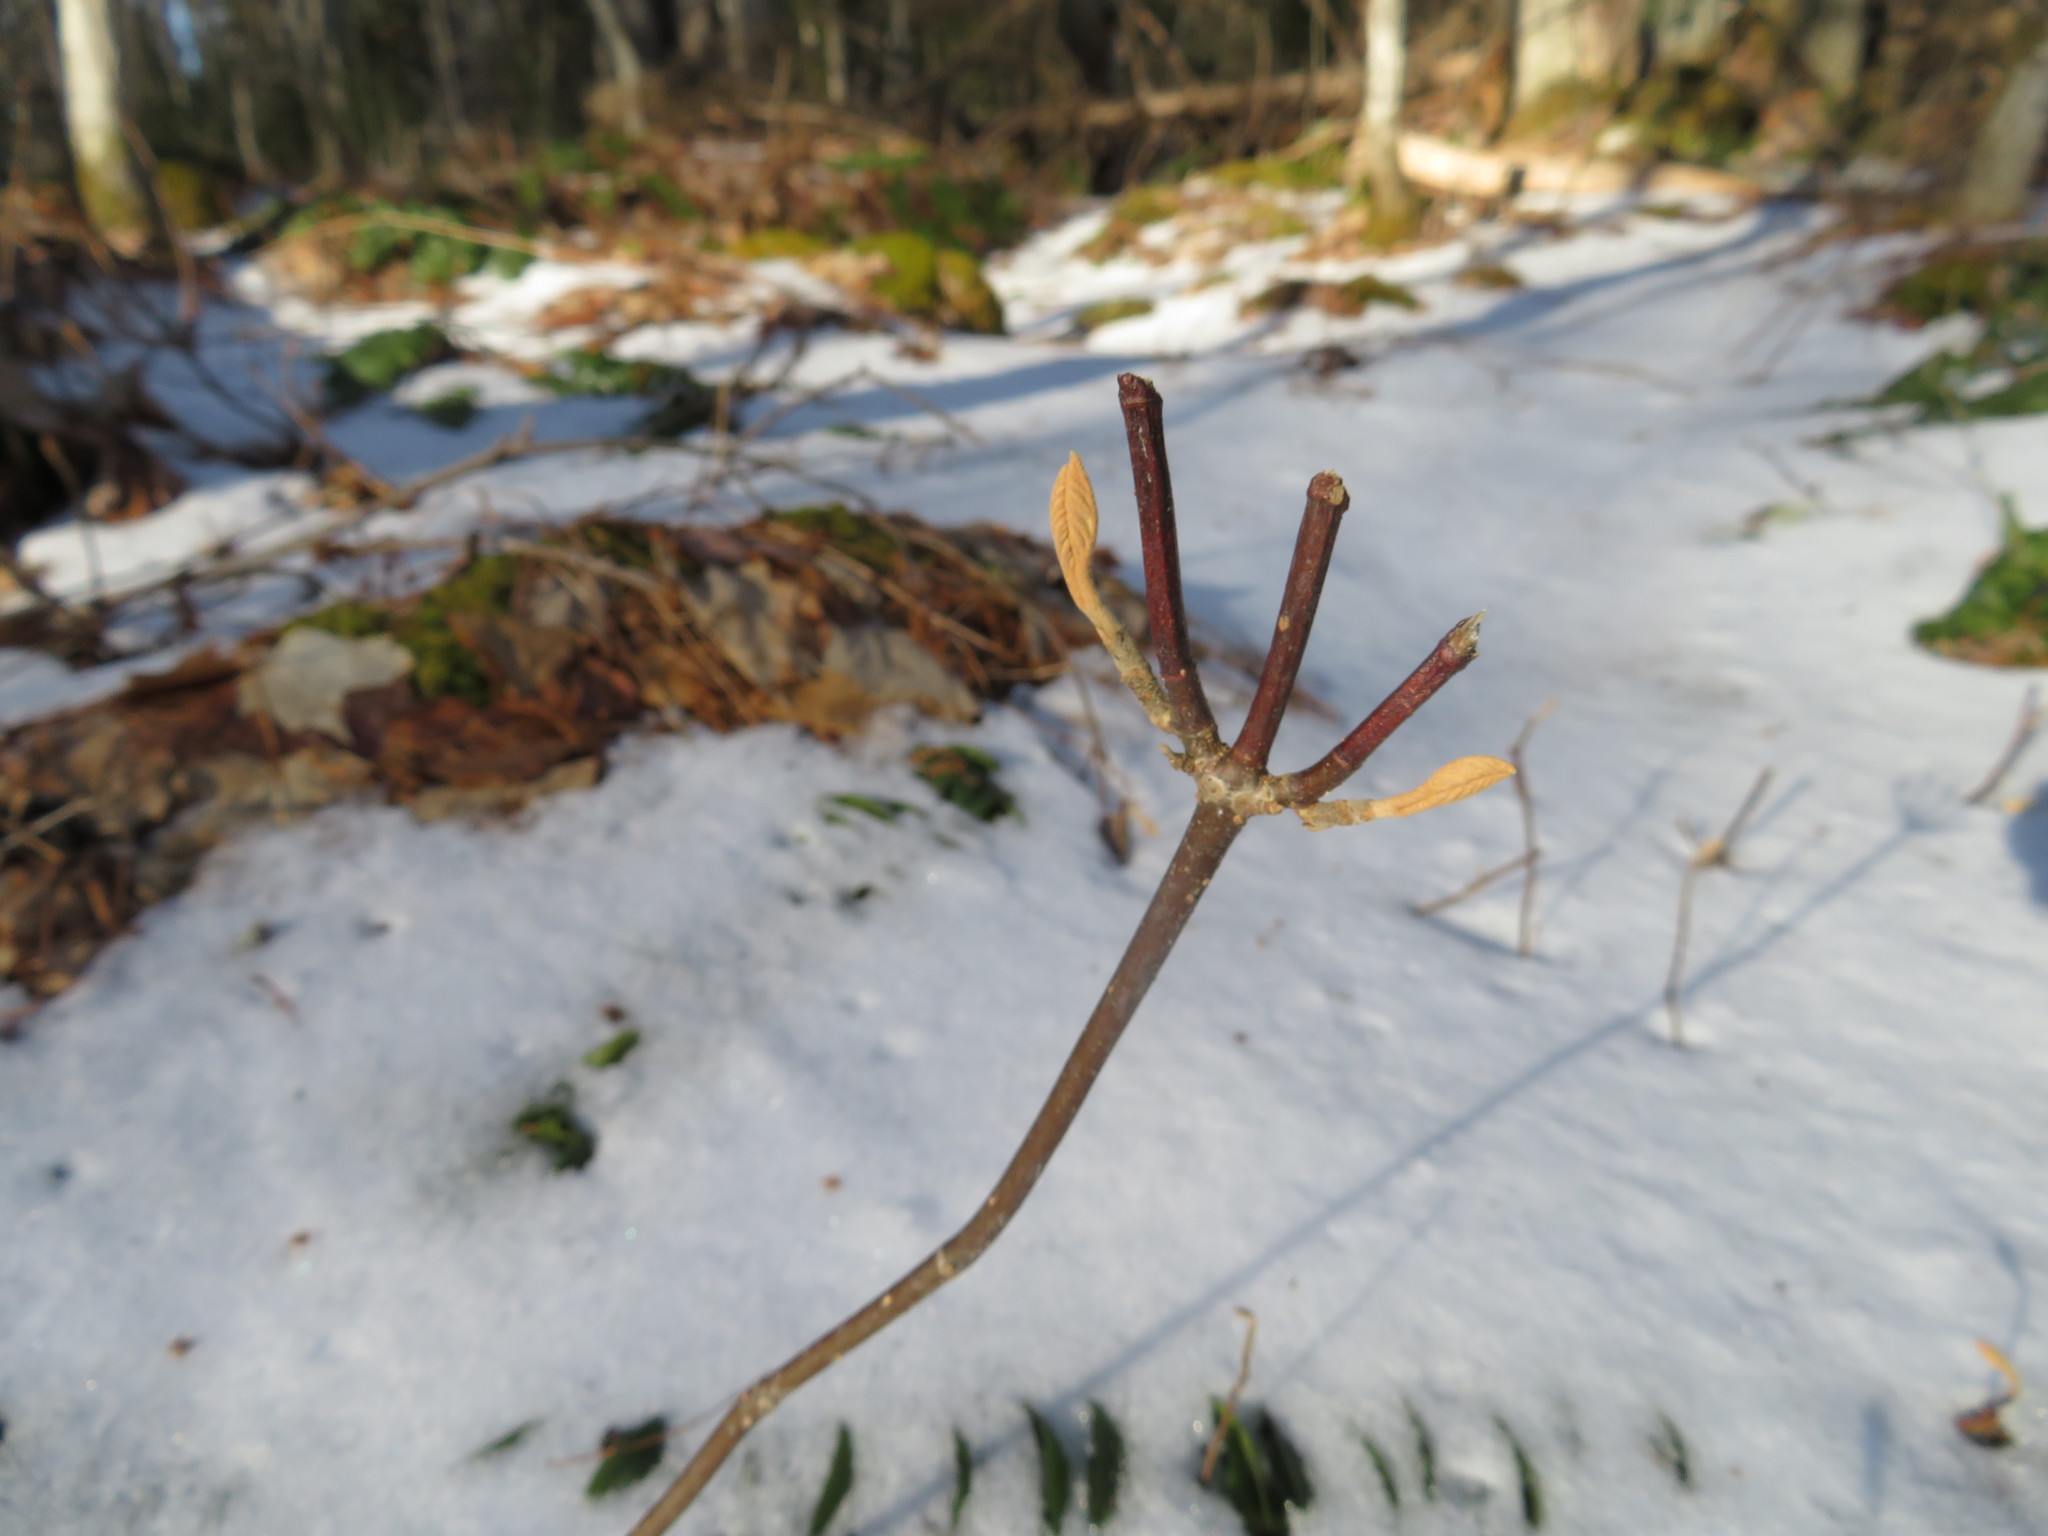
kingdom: Plantae
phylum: Tracheophyta
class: Magnoliopsida
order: Dipsacales
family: Viburnaceae
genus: Viburnum
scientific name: Viburnum lantanoides
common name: Hobblebush
